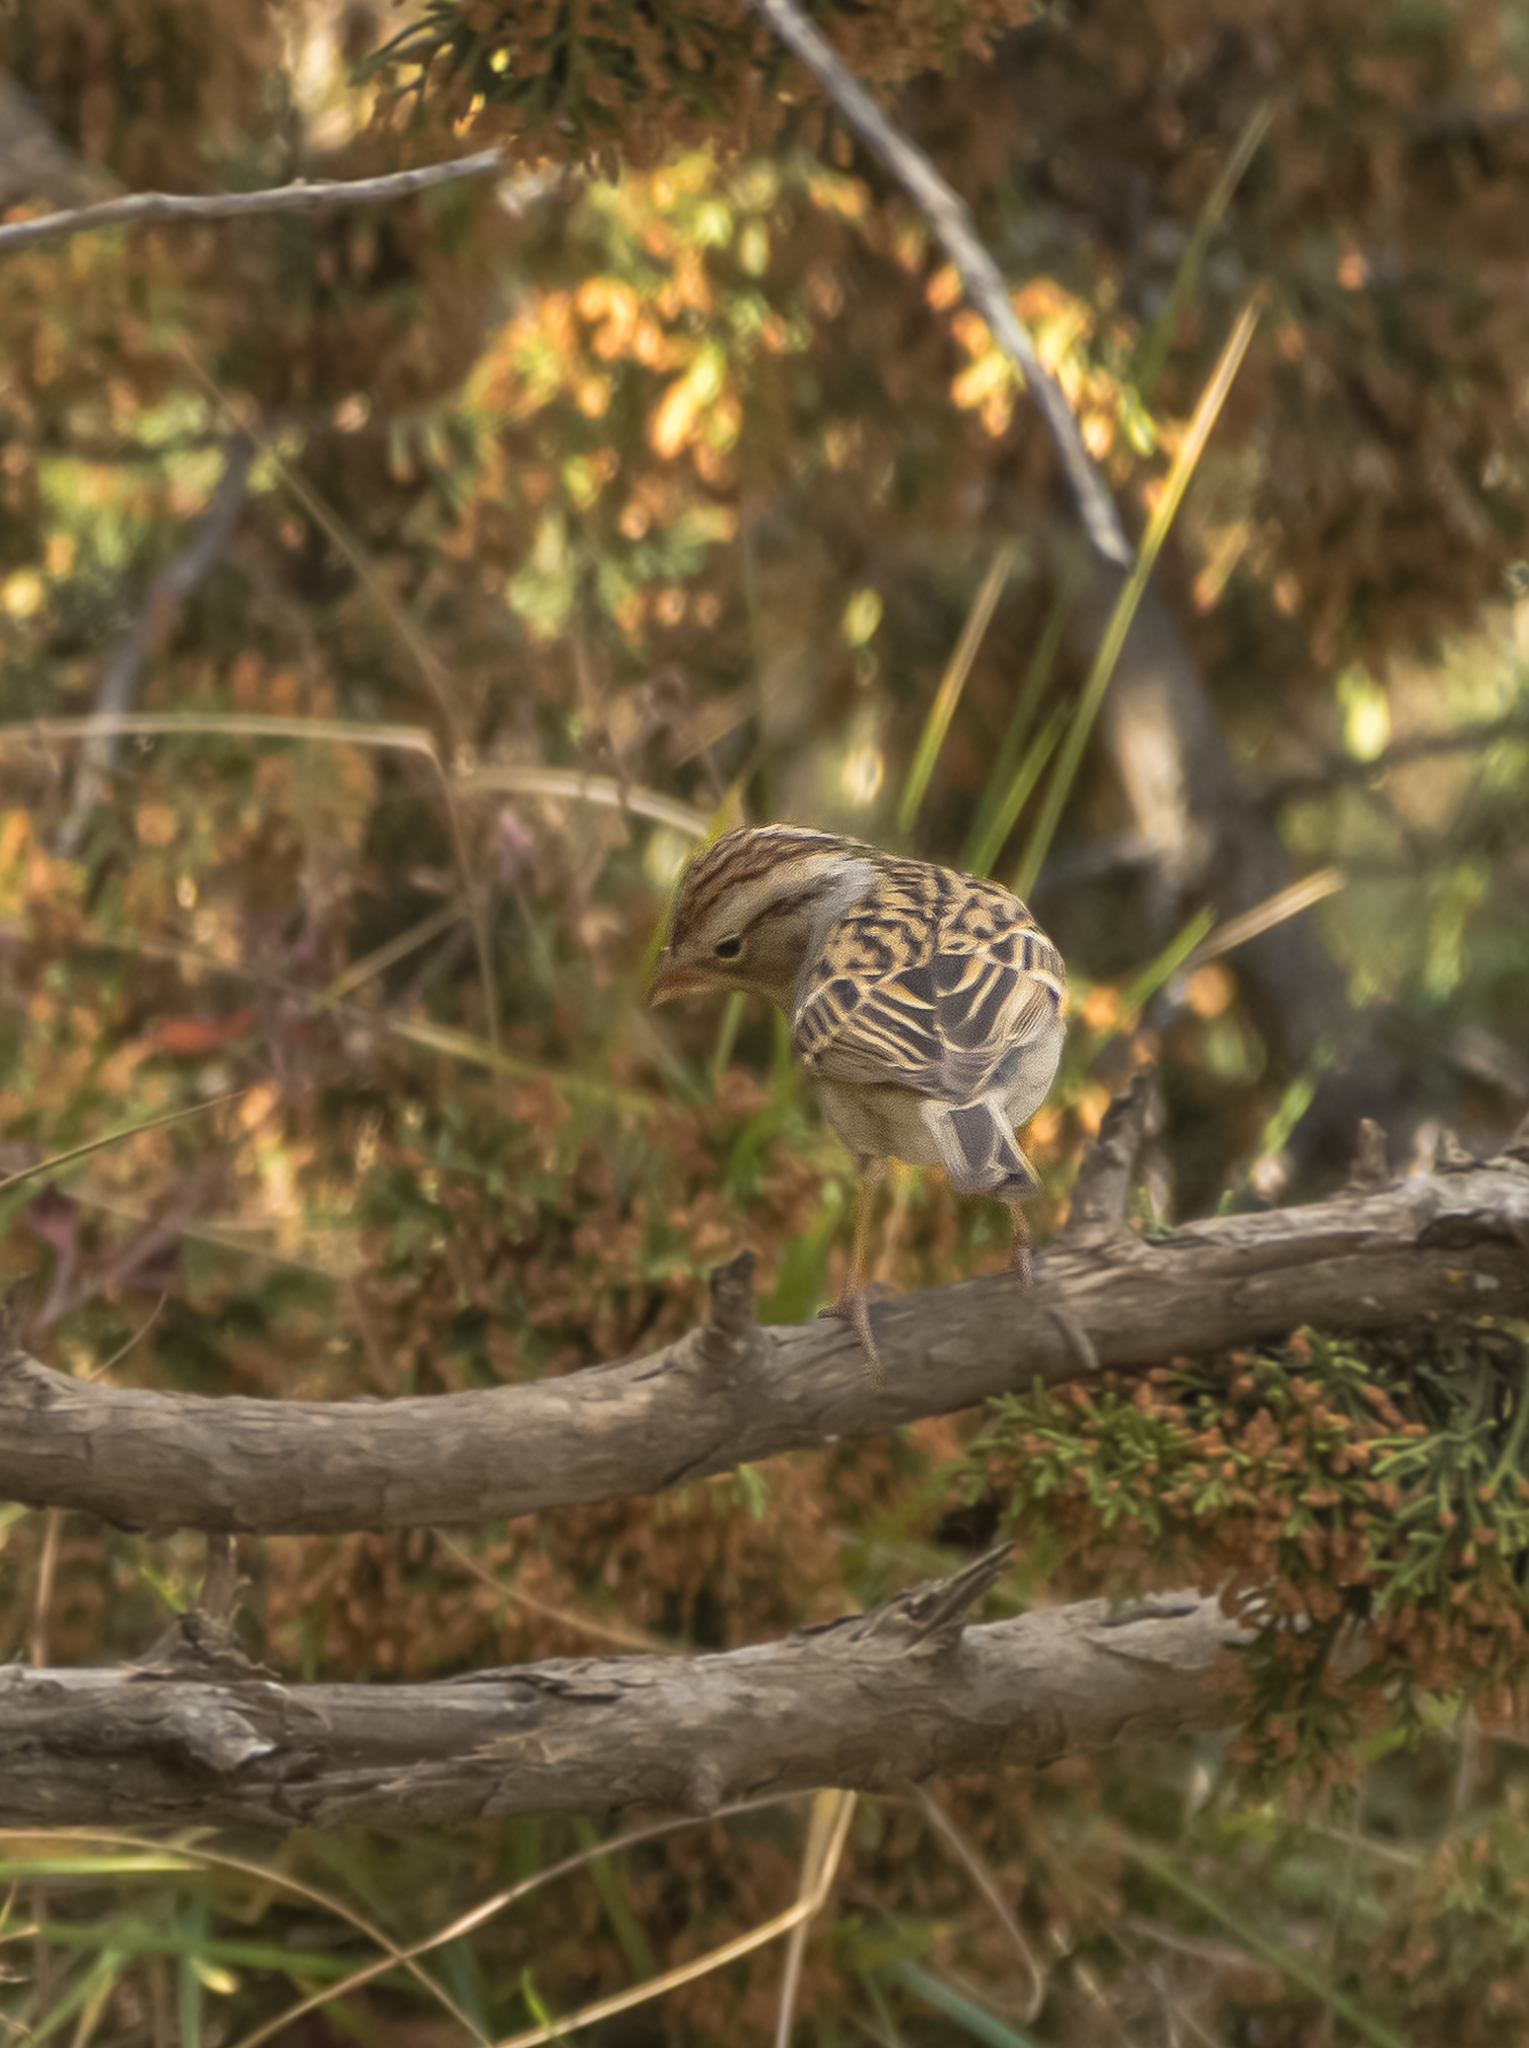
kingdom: Animalia
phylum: Chordata
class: Aves
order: Passeriformes
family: Passerellidae
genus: Spizella
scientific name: Spizella breweri
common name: Brewer's sparrow
